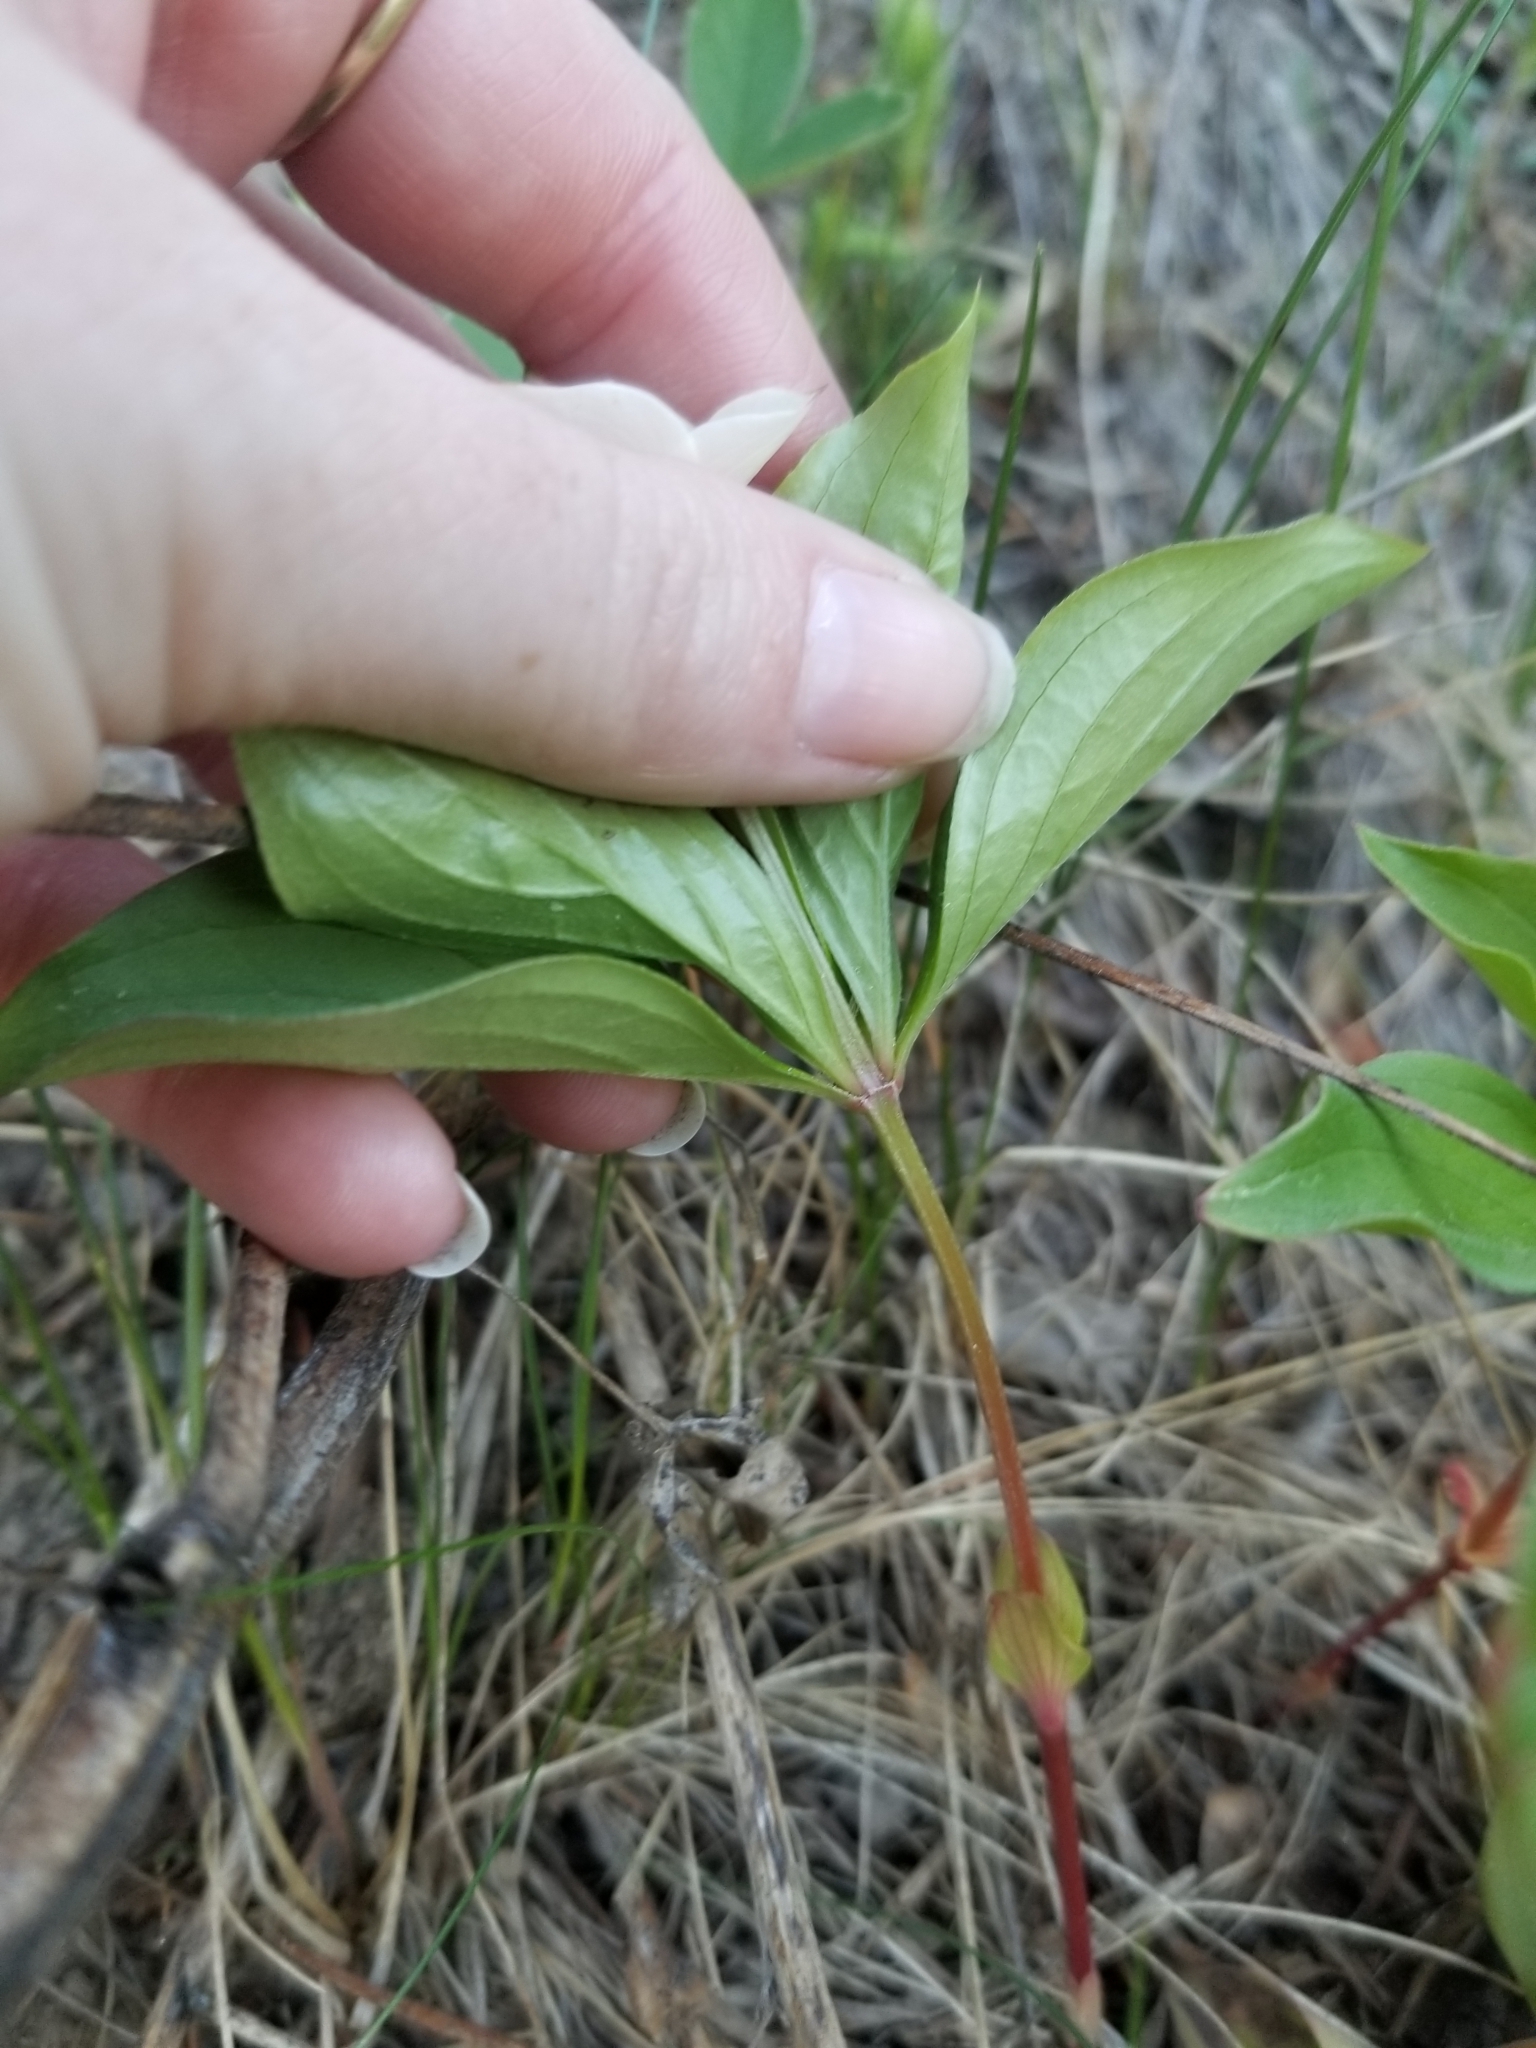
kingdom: Plantae
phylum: Tracheophyta
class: Magnoliopsida
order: Cornales
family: Cornaceae
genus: Cornus
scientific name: Cornus canadensis
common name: Creeping dogwood
